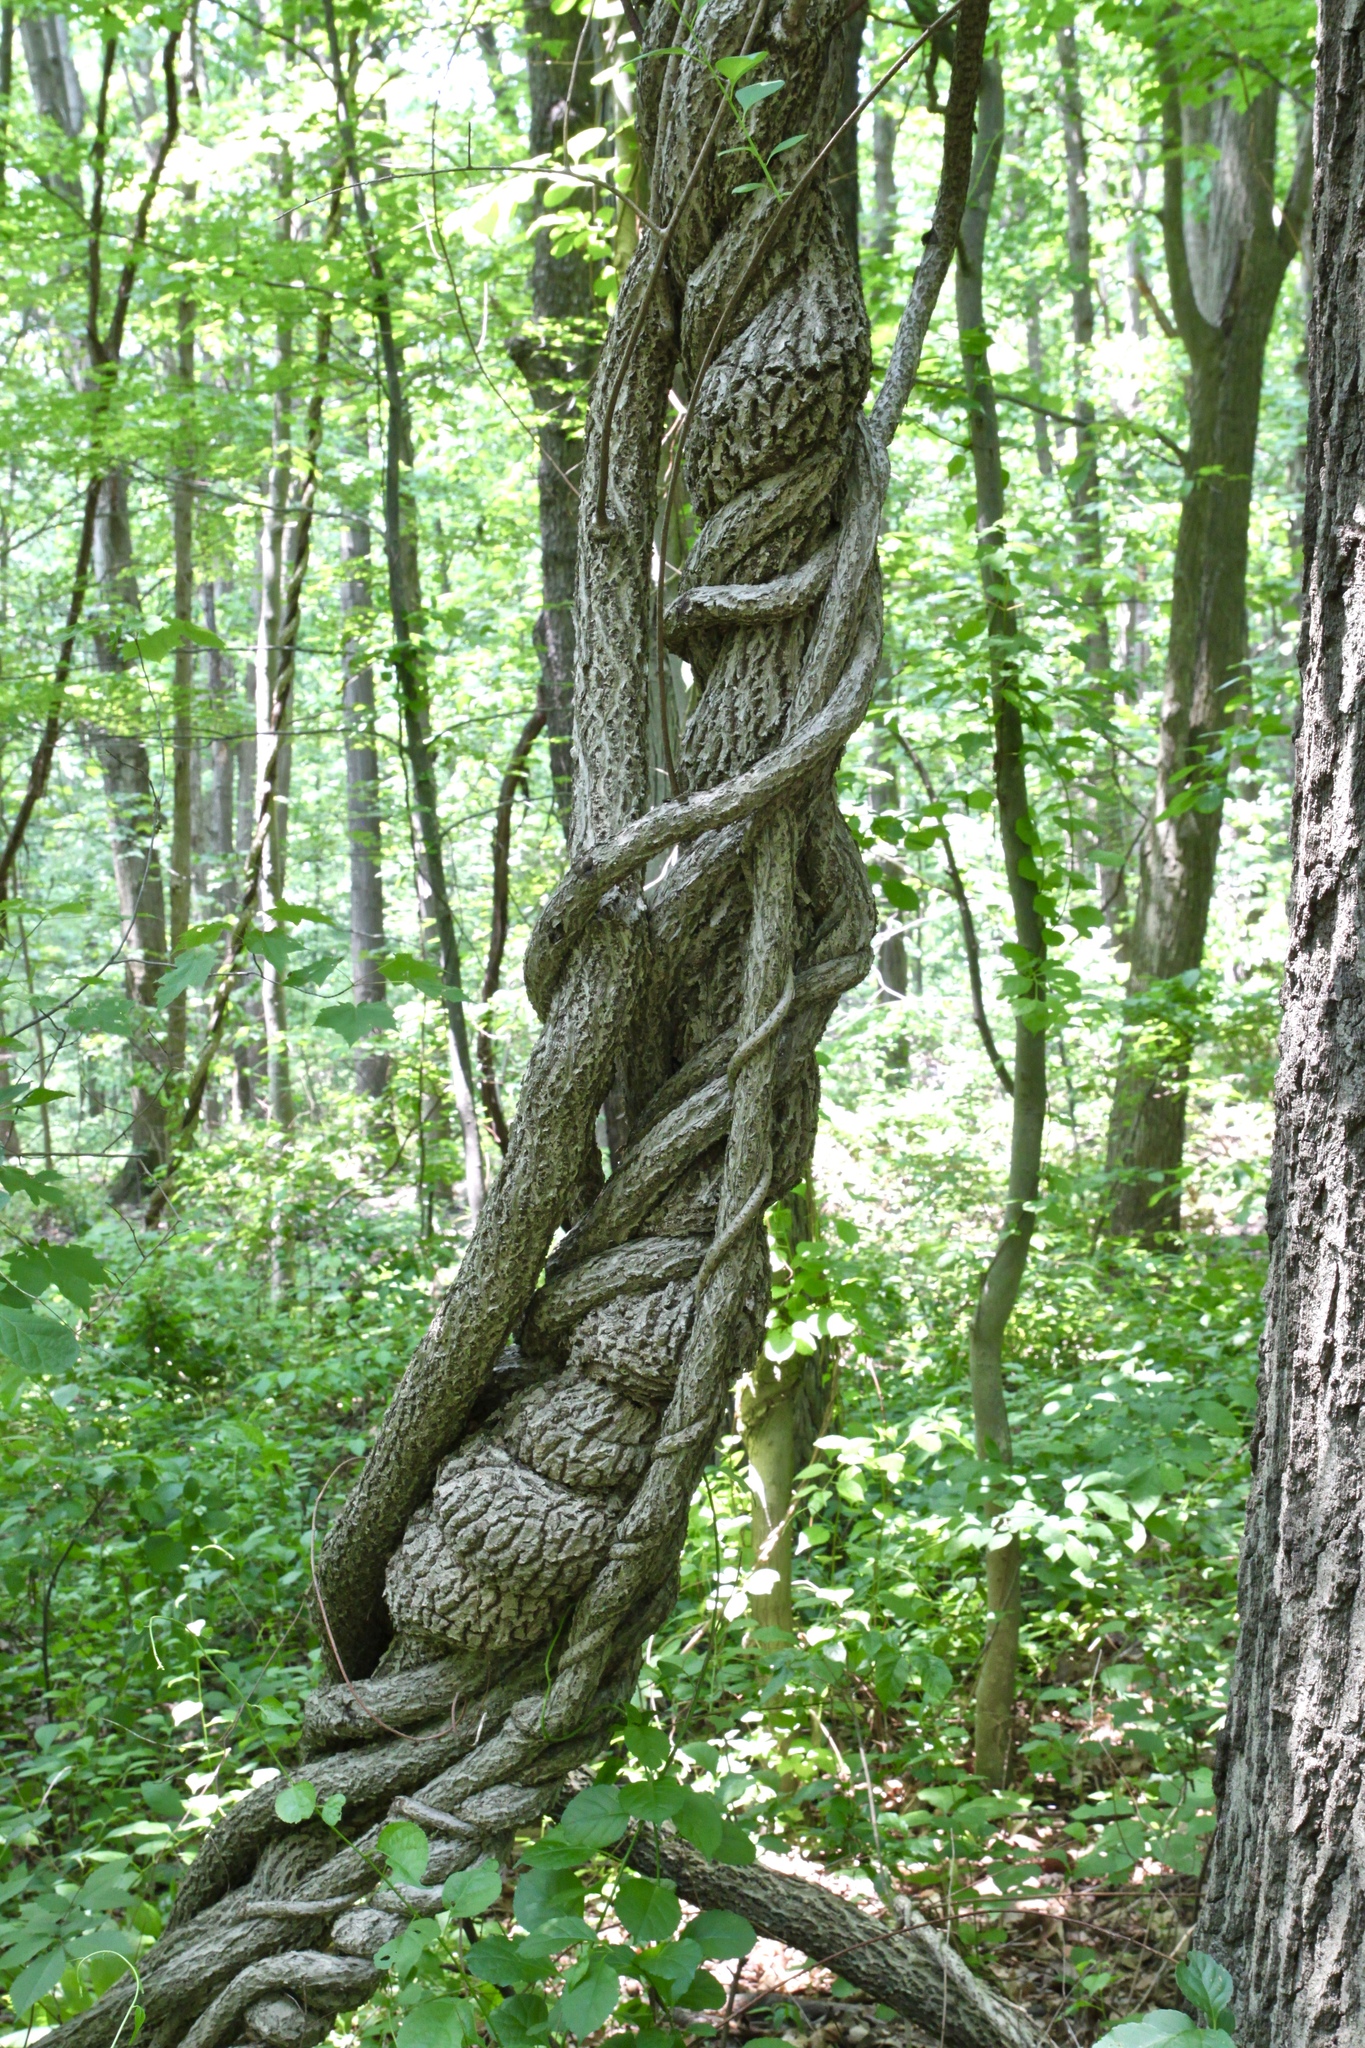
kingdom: Plantae
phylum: Tracheophyta
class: Magnoliopsida
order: Celastrales
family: Celastraceae
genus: Celastrus
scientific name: Celastrus orbiculatus
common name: Oriental bittersweet
